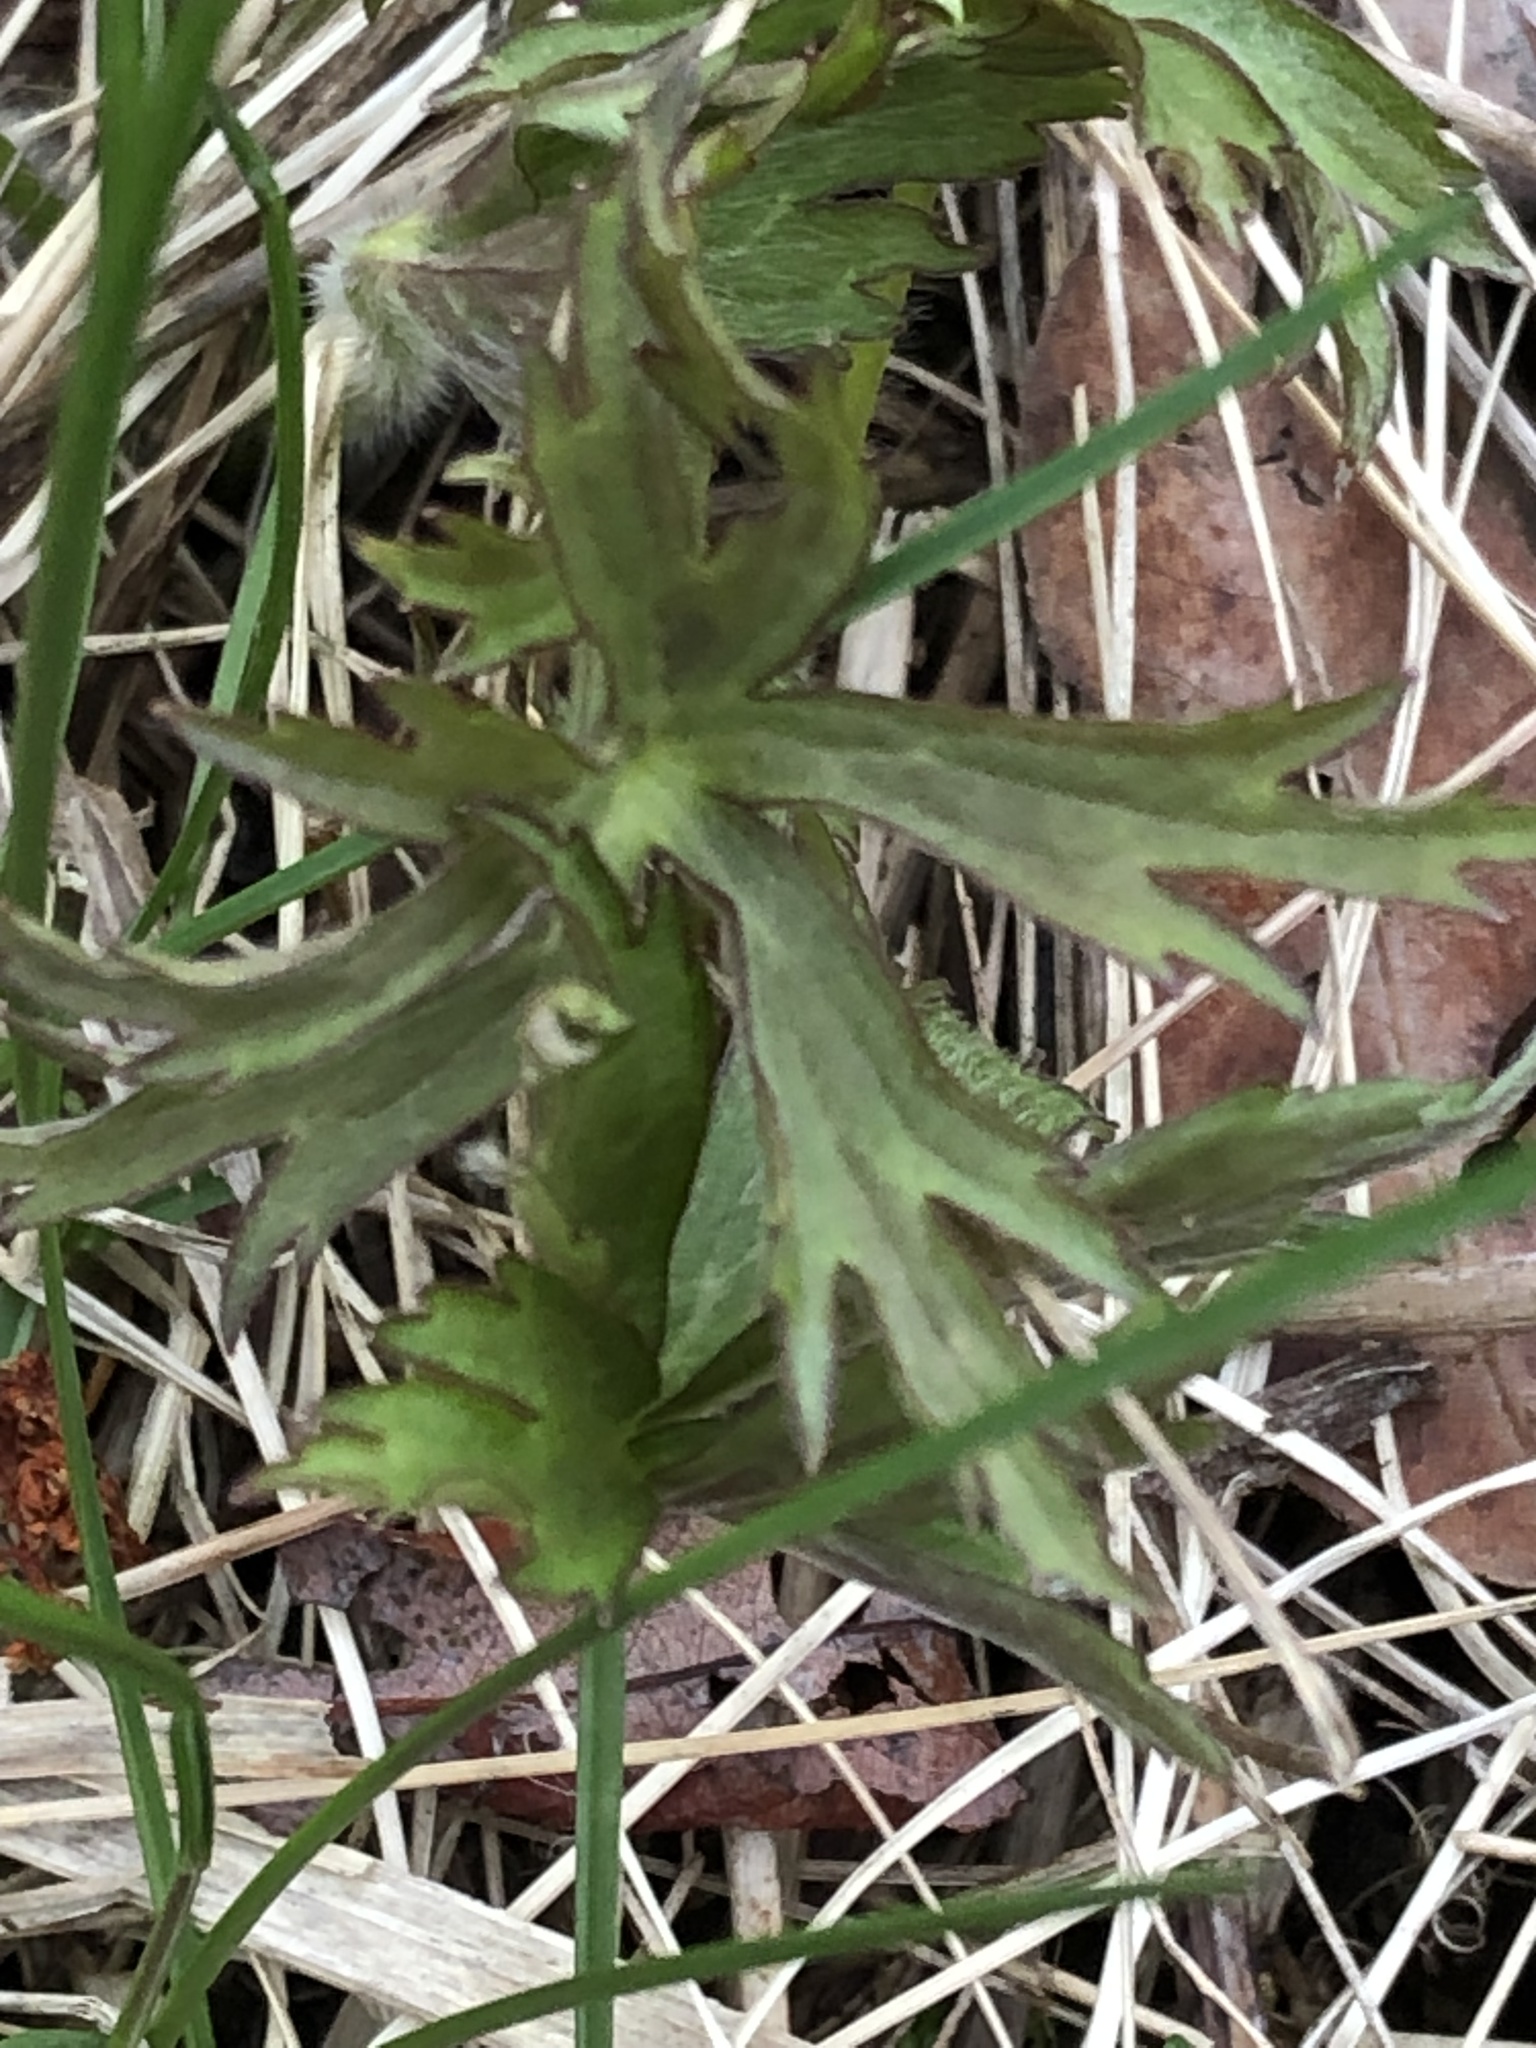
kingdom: Plantae
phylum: Tracheophyta
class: Magnoliopsida
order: Ranunculales
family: Ranunculaceae
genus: Ranunculus
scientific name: Ranunculus acris
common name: Meadow buttercup
